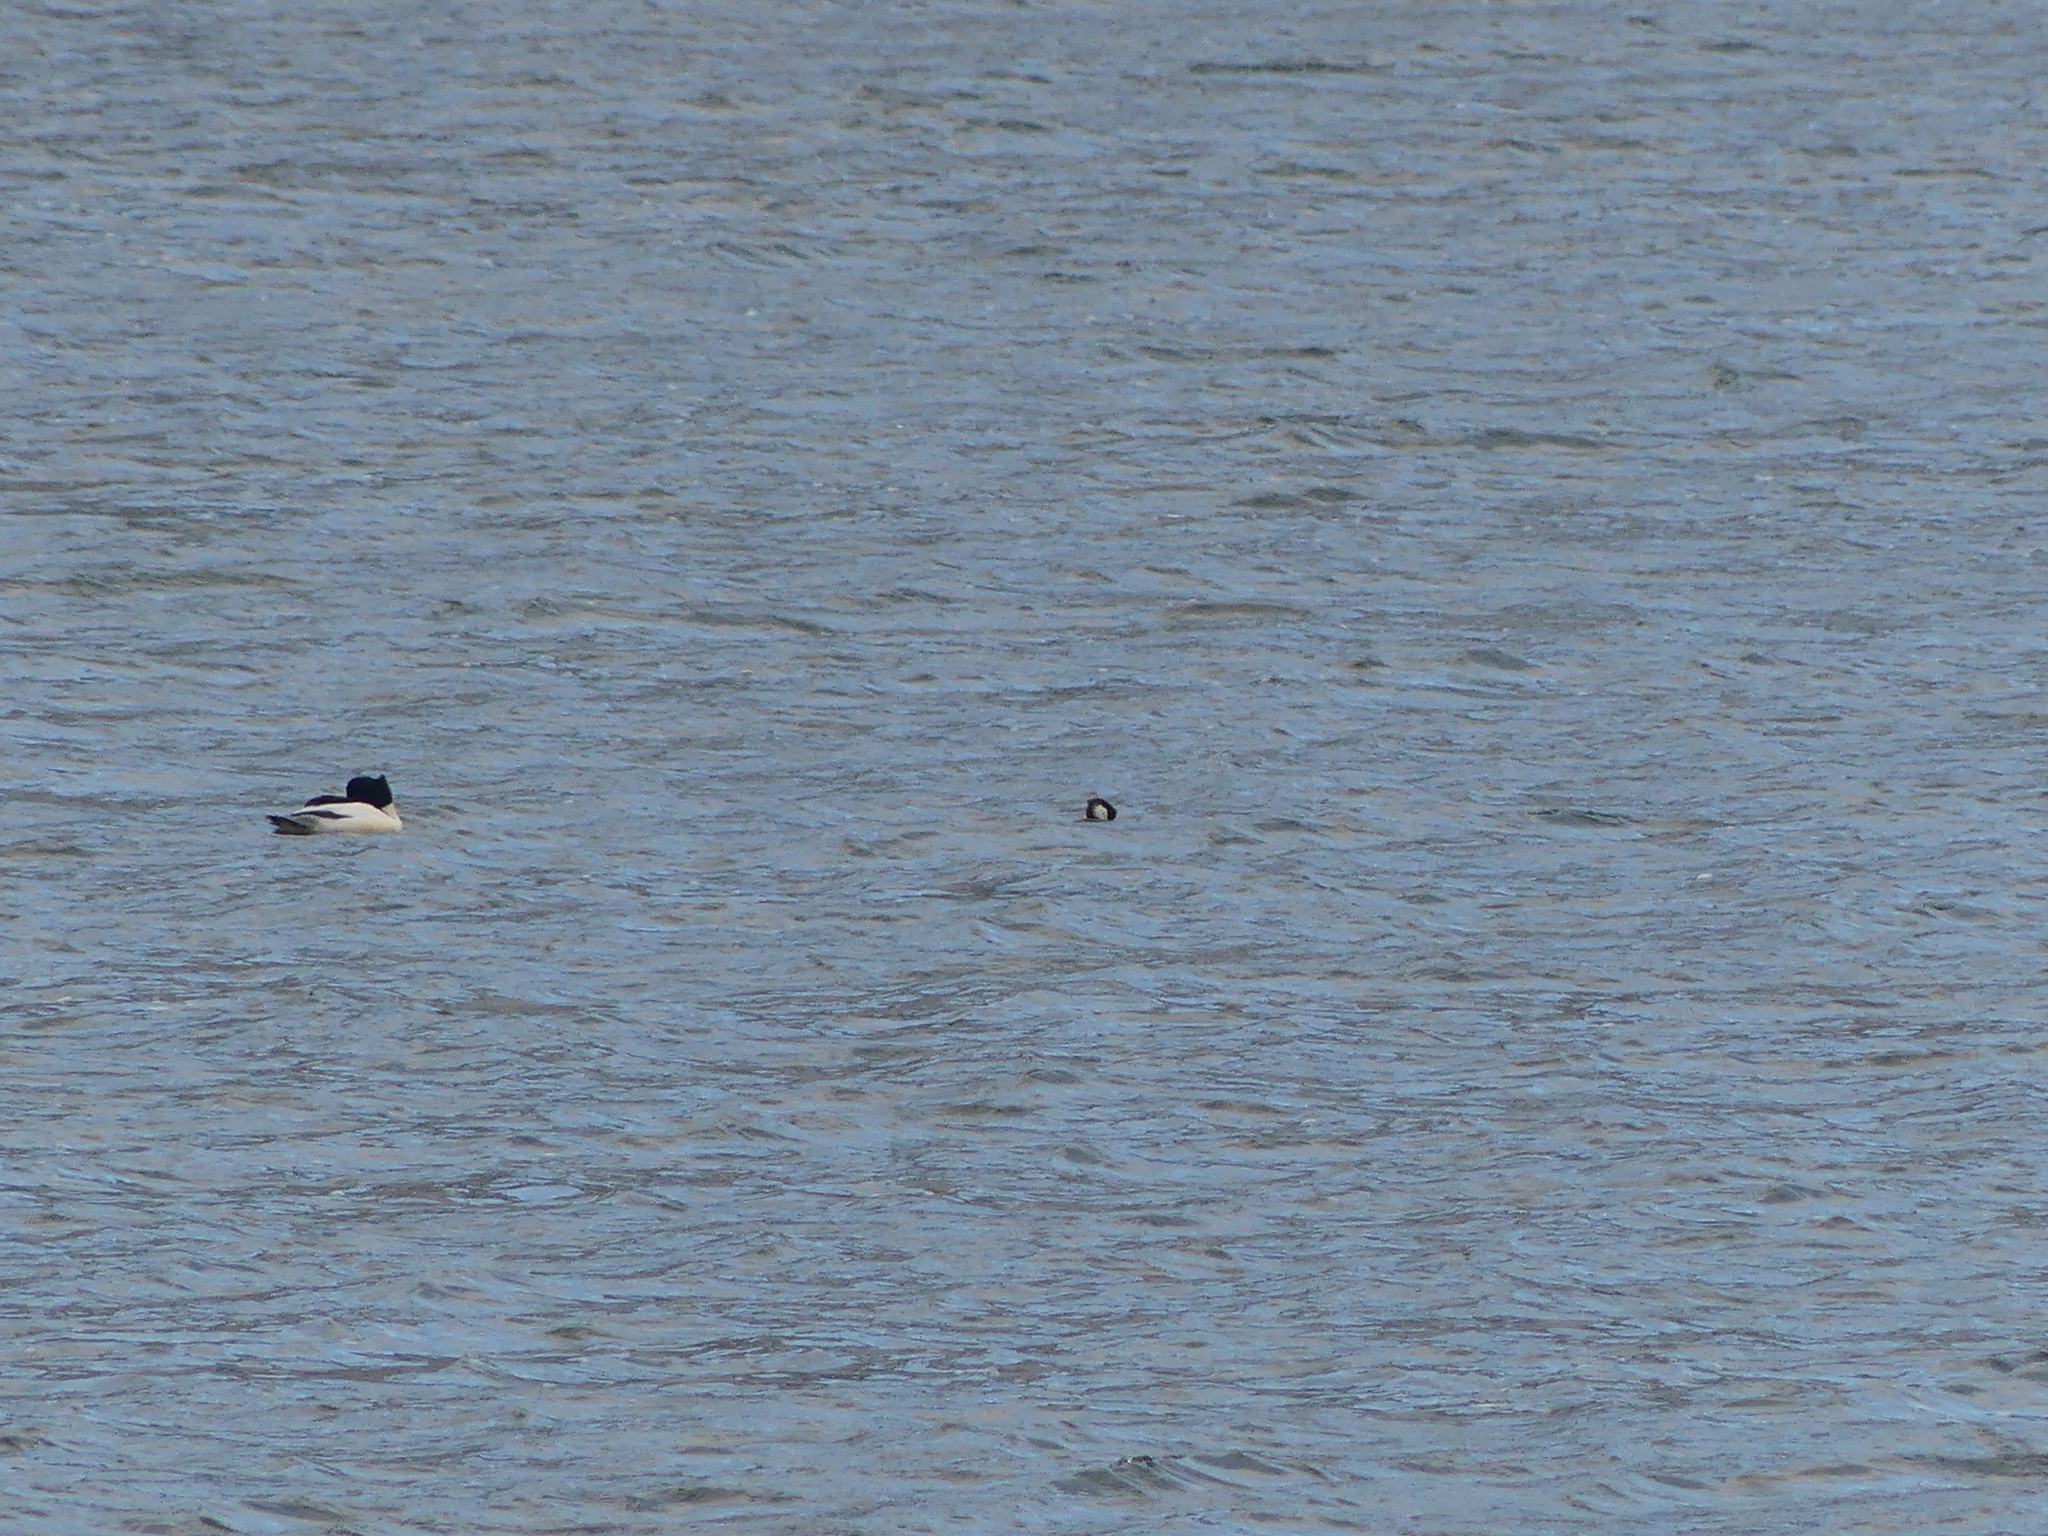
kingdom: Animalia
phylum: Chordata
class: Aves
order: Anseriformes
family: Anatidae
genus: Mergus
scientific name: Mergus merganser
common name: Common merganser
